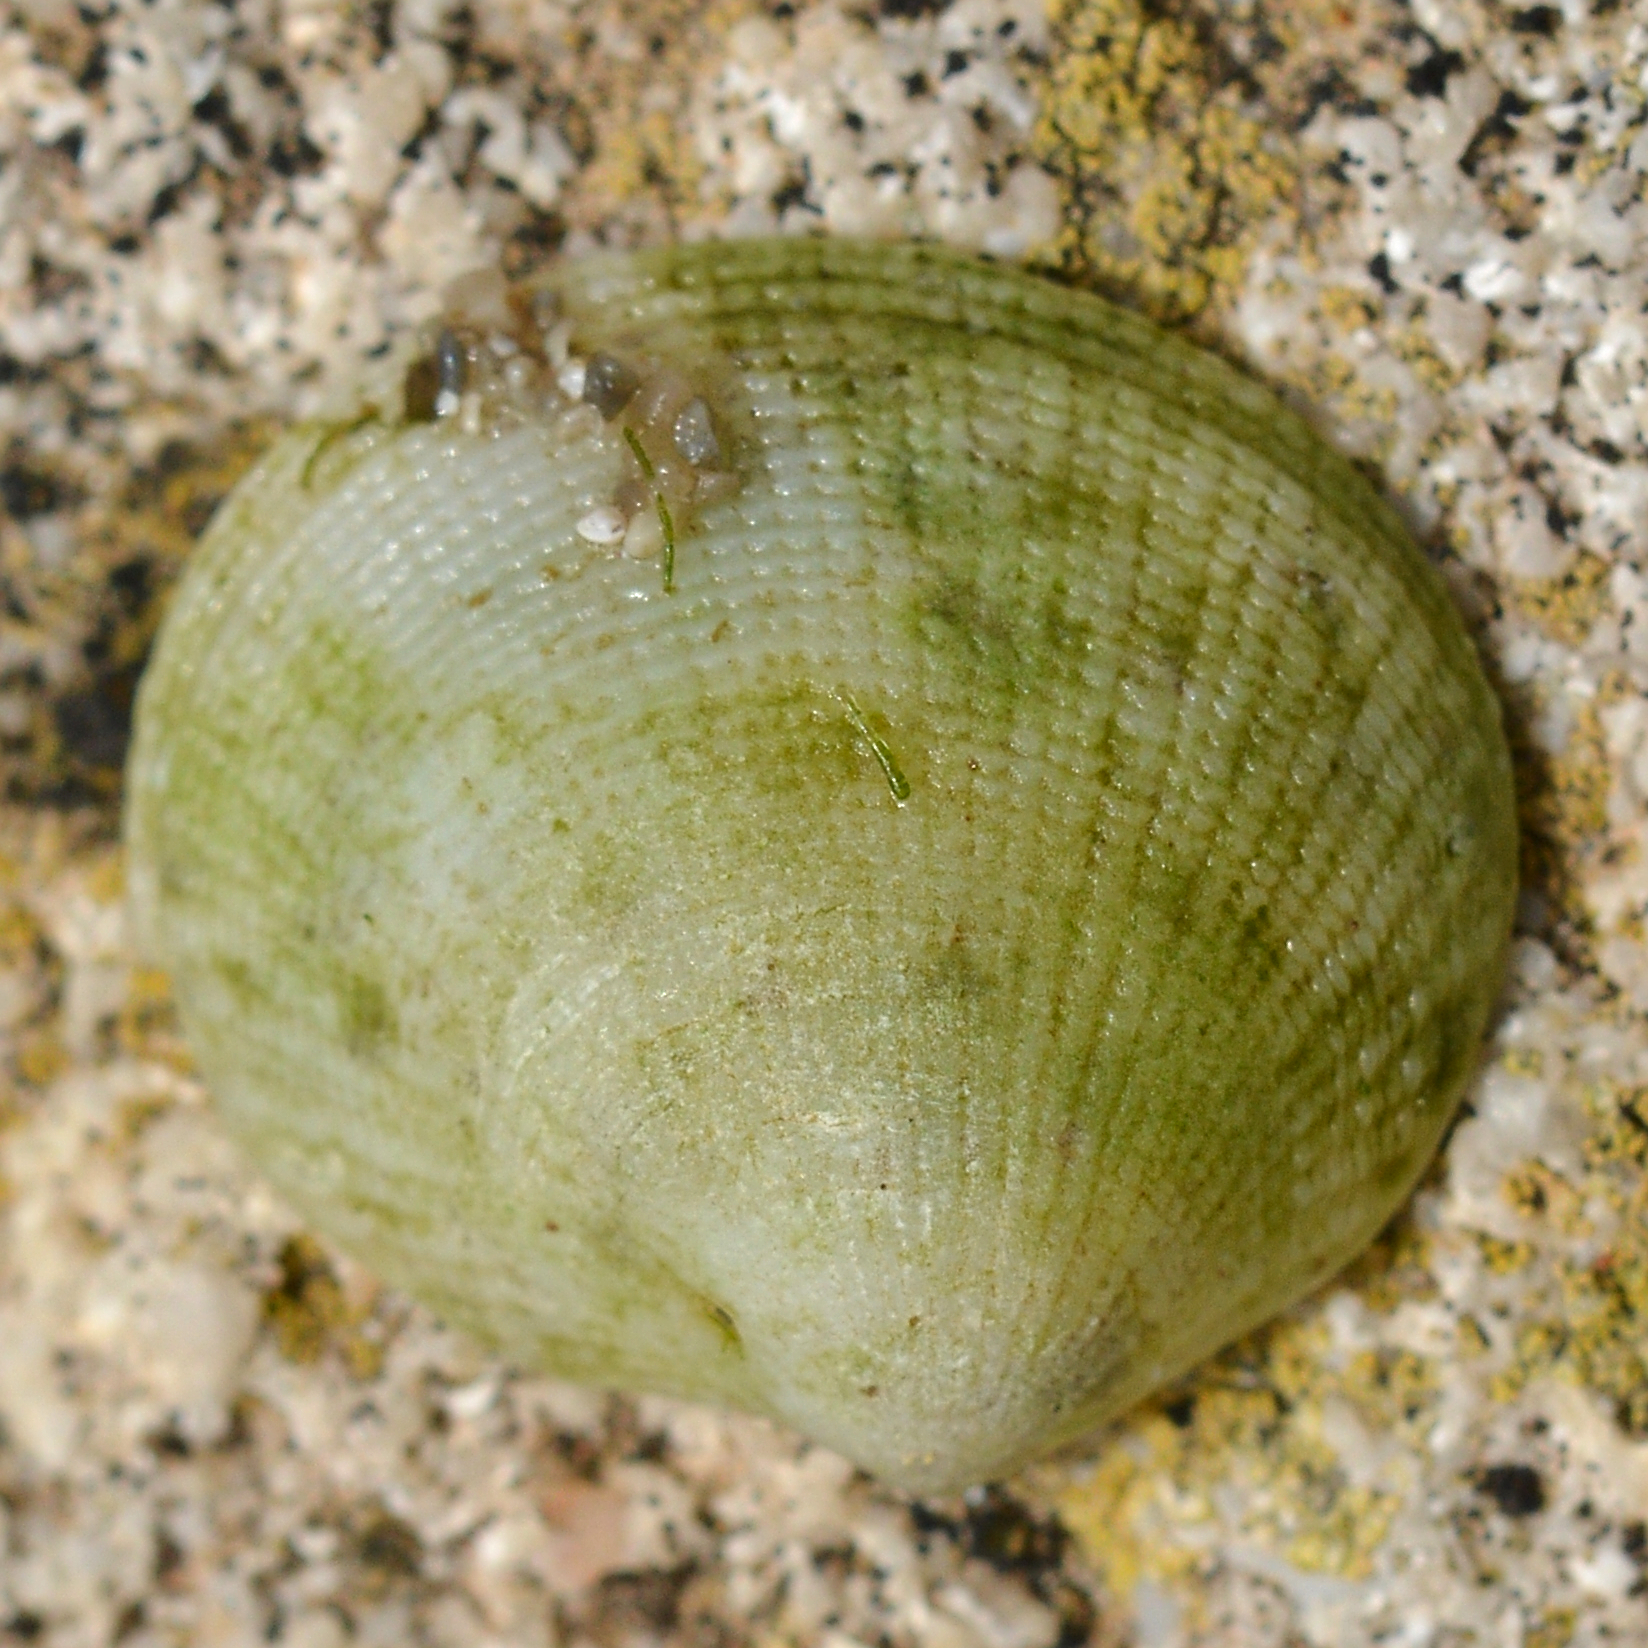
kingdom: Animalia
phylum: Mollusca
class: Bivalvia
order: Lucinida
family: Lucinidae
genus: Ctena
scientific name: Ctena decussata
